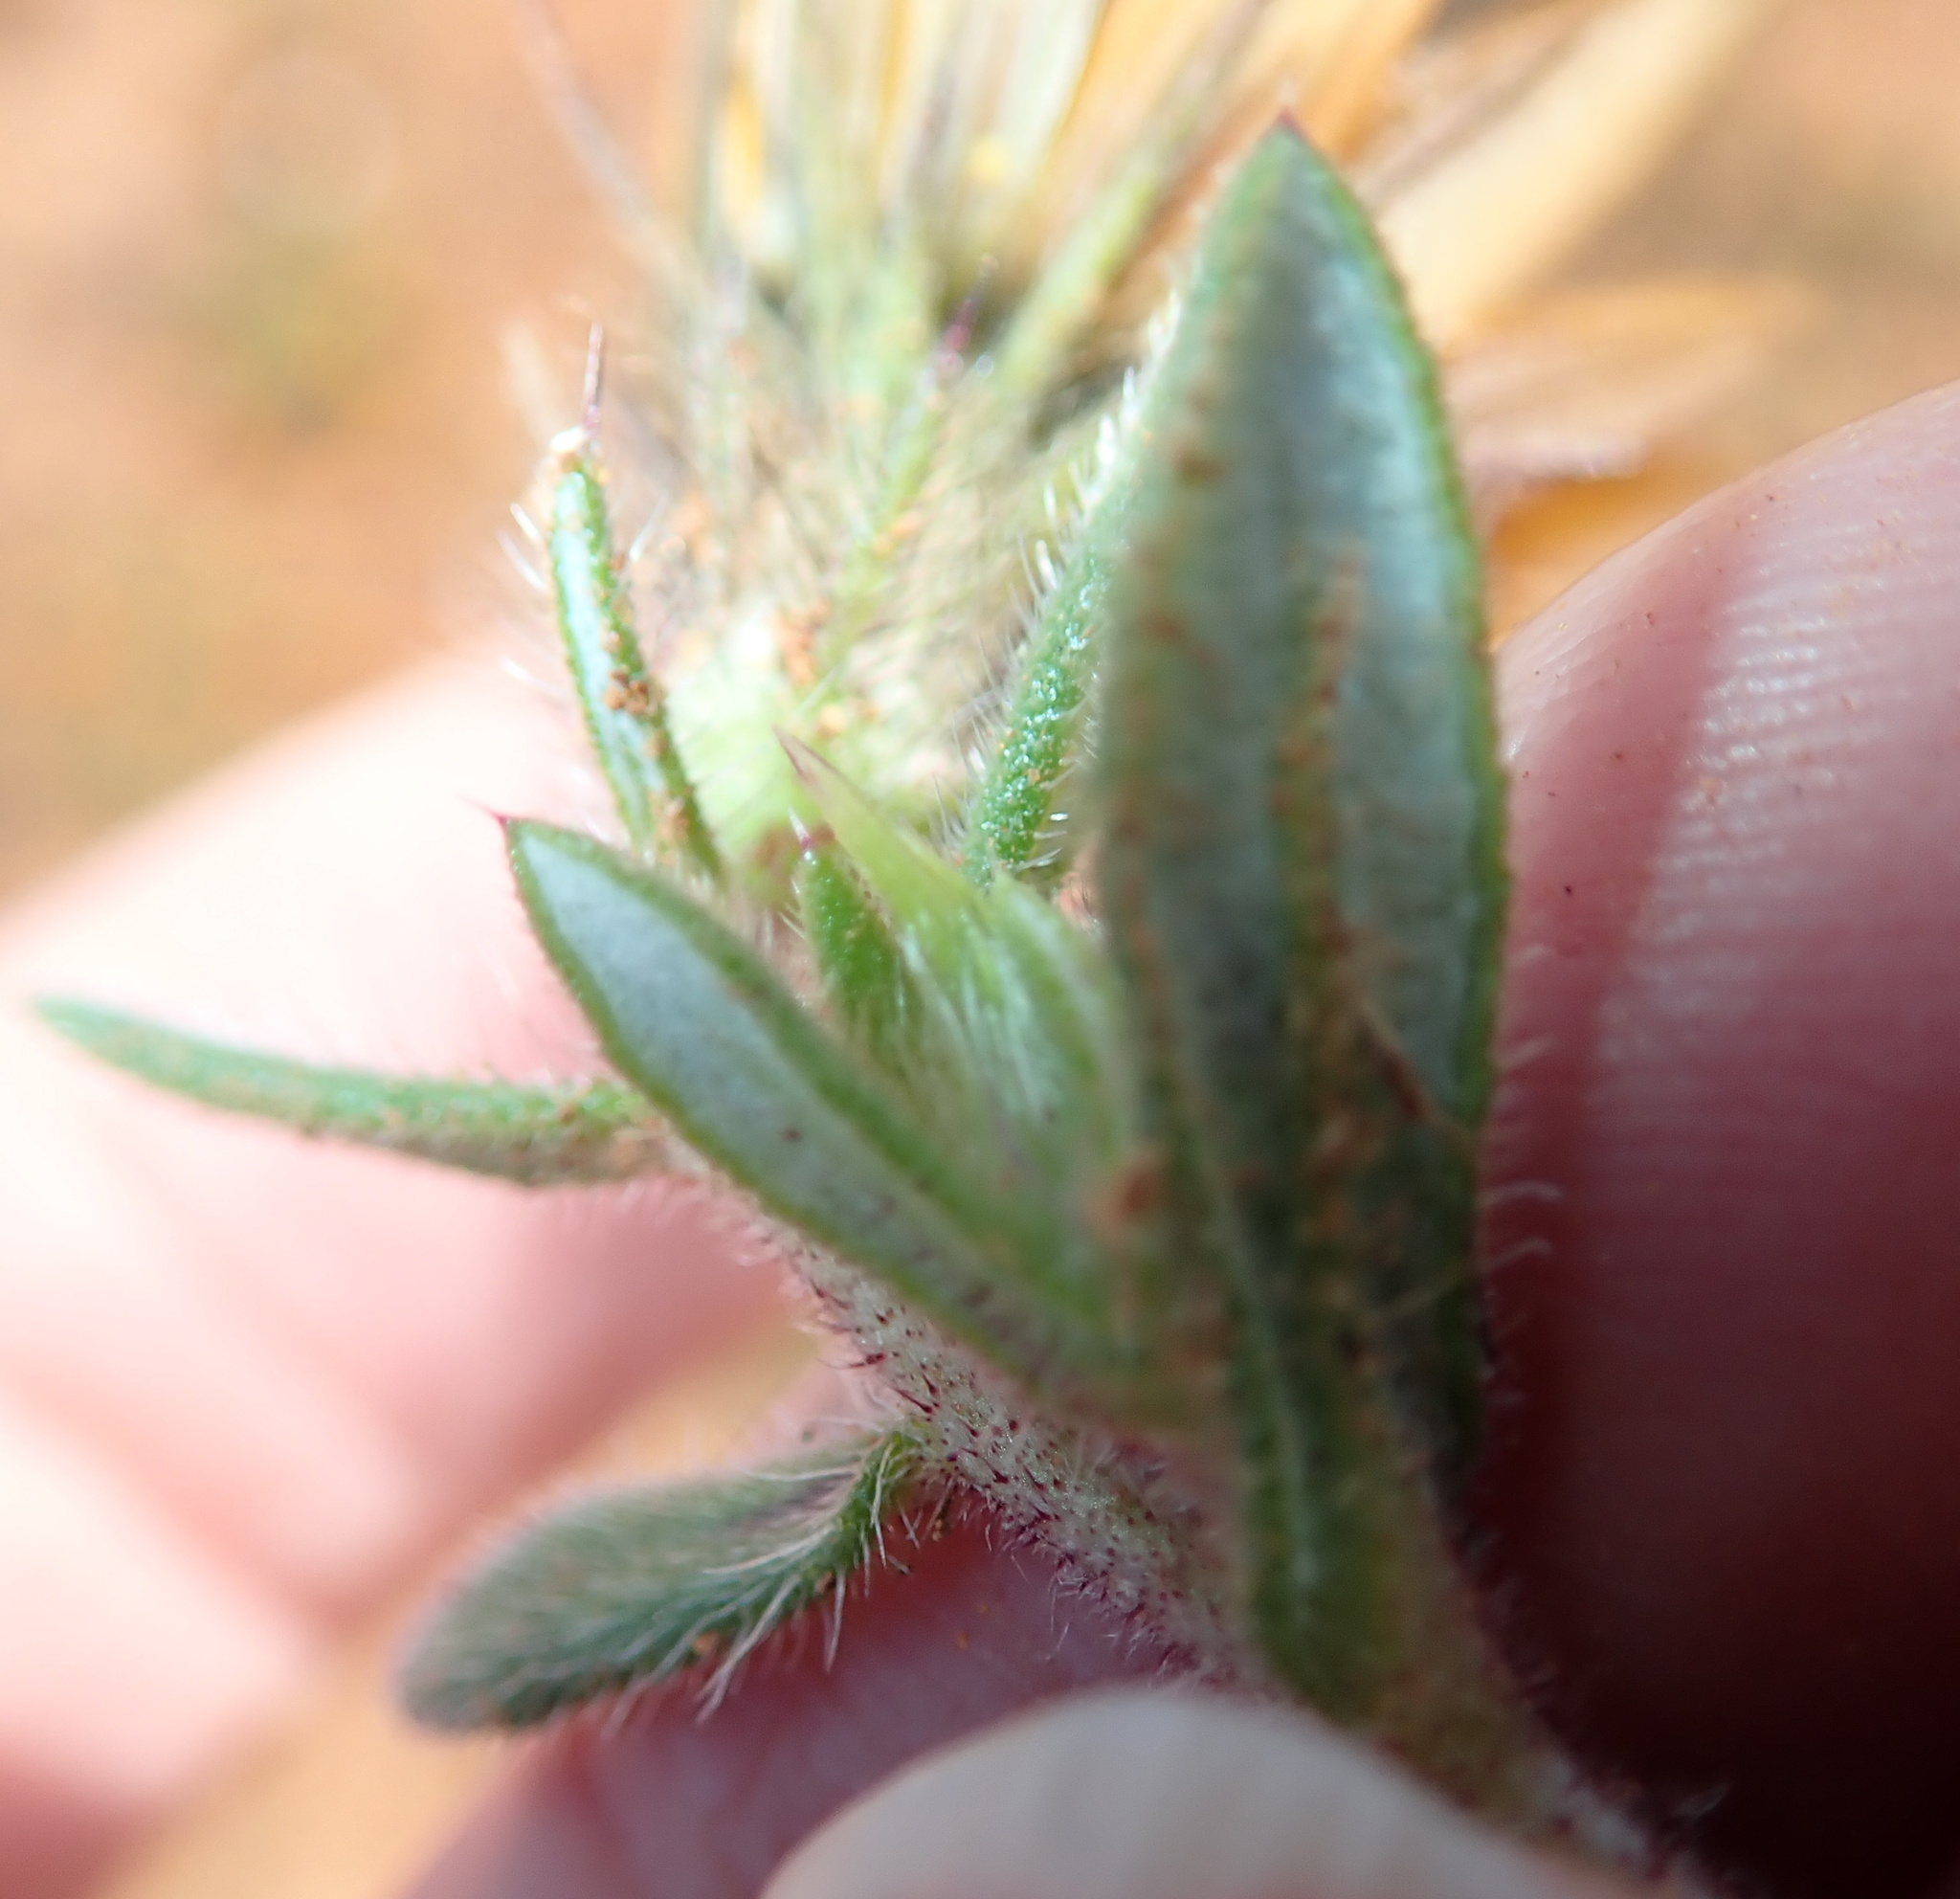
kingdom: Plantae
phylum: Tracheophyta
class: Magnoliopsida
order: Asterales
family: Asteraceae
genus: Gorteria
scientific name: Gorteria diffusa
